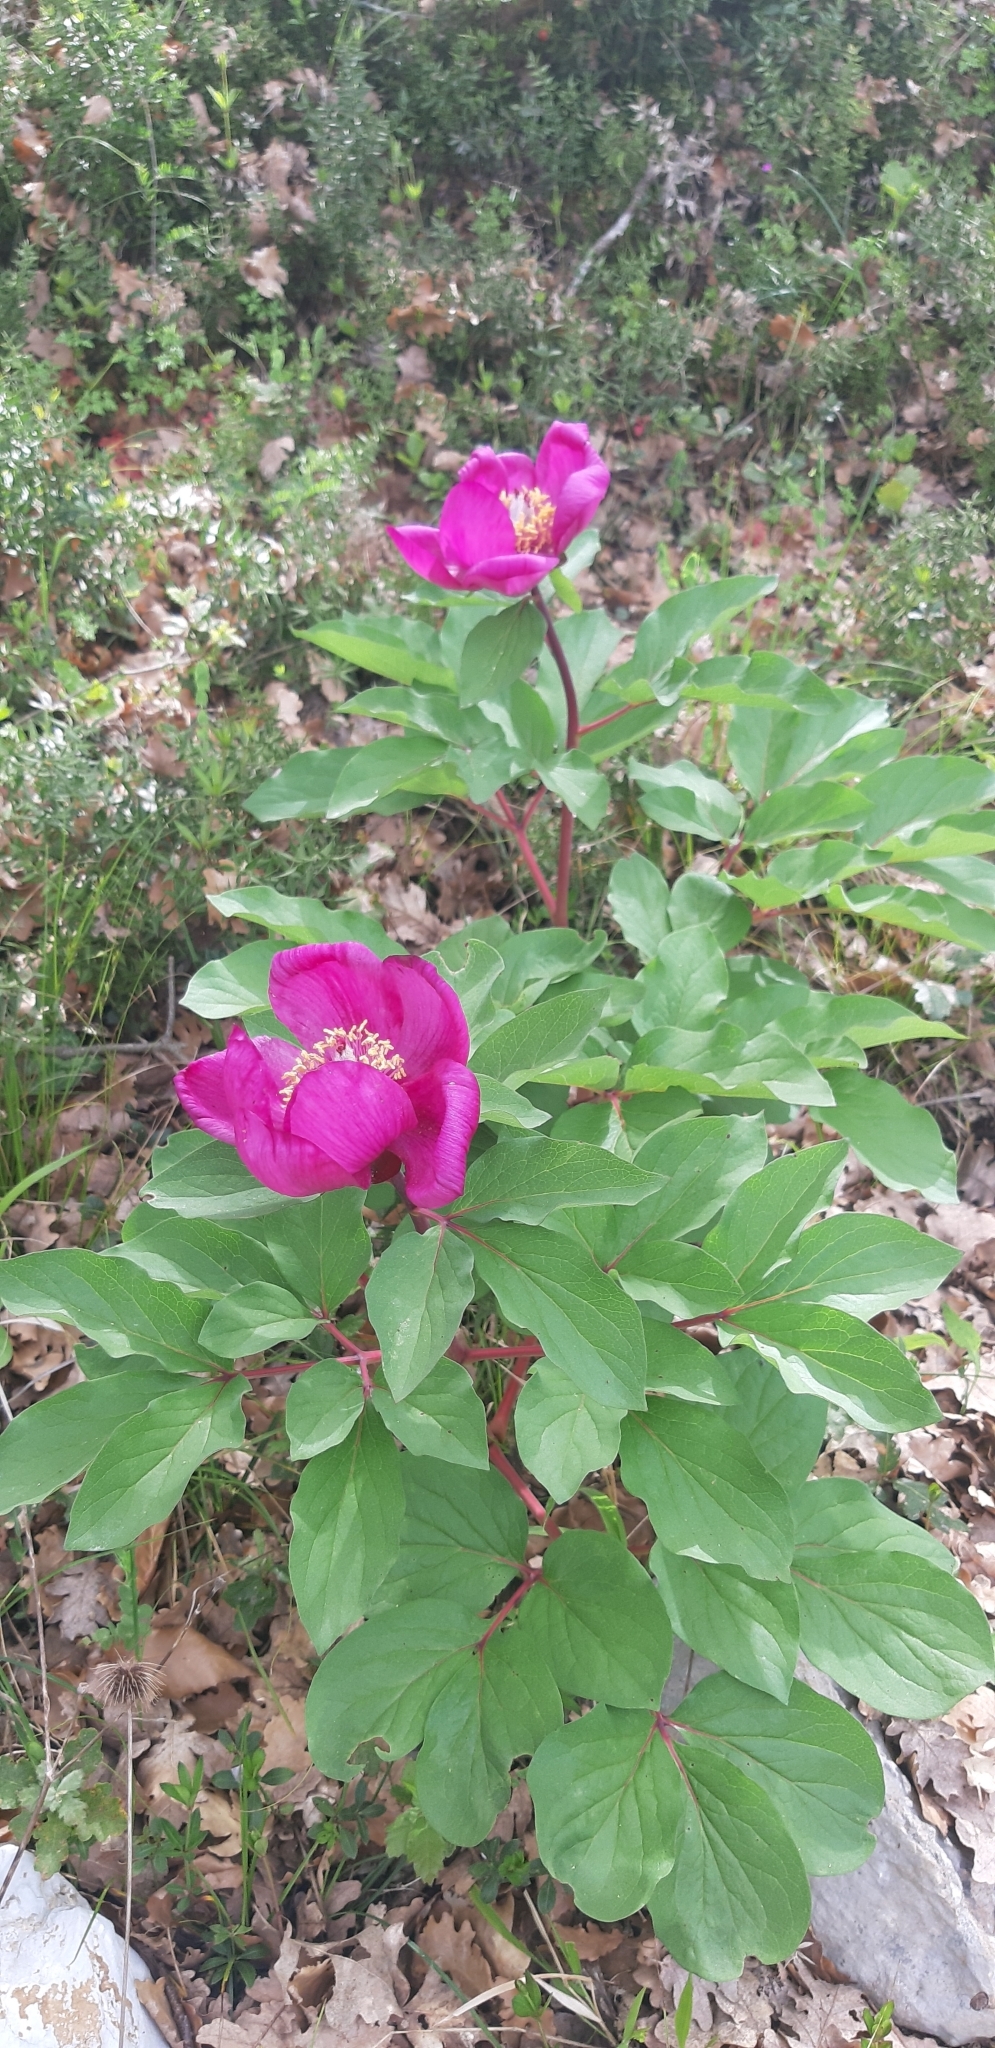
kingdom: Plantae
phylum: Tracheophyta
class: Magnoliopsida
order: Saxifragales
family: Paeoniaceae
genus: Paeonia
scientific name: Paeonia mascula
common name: Peony
